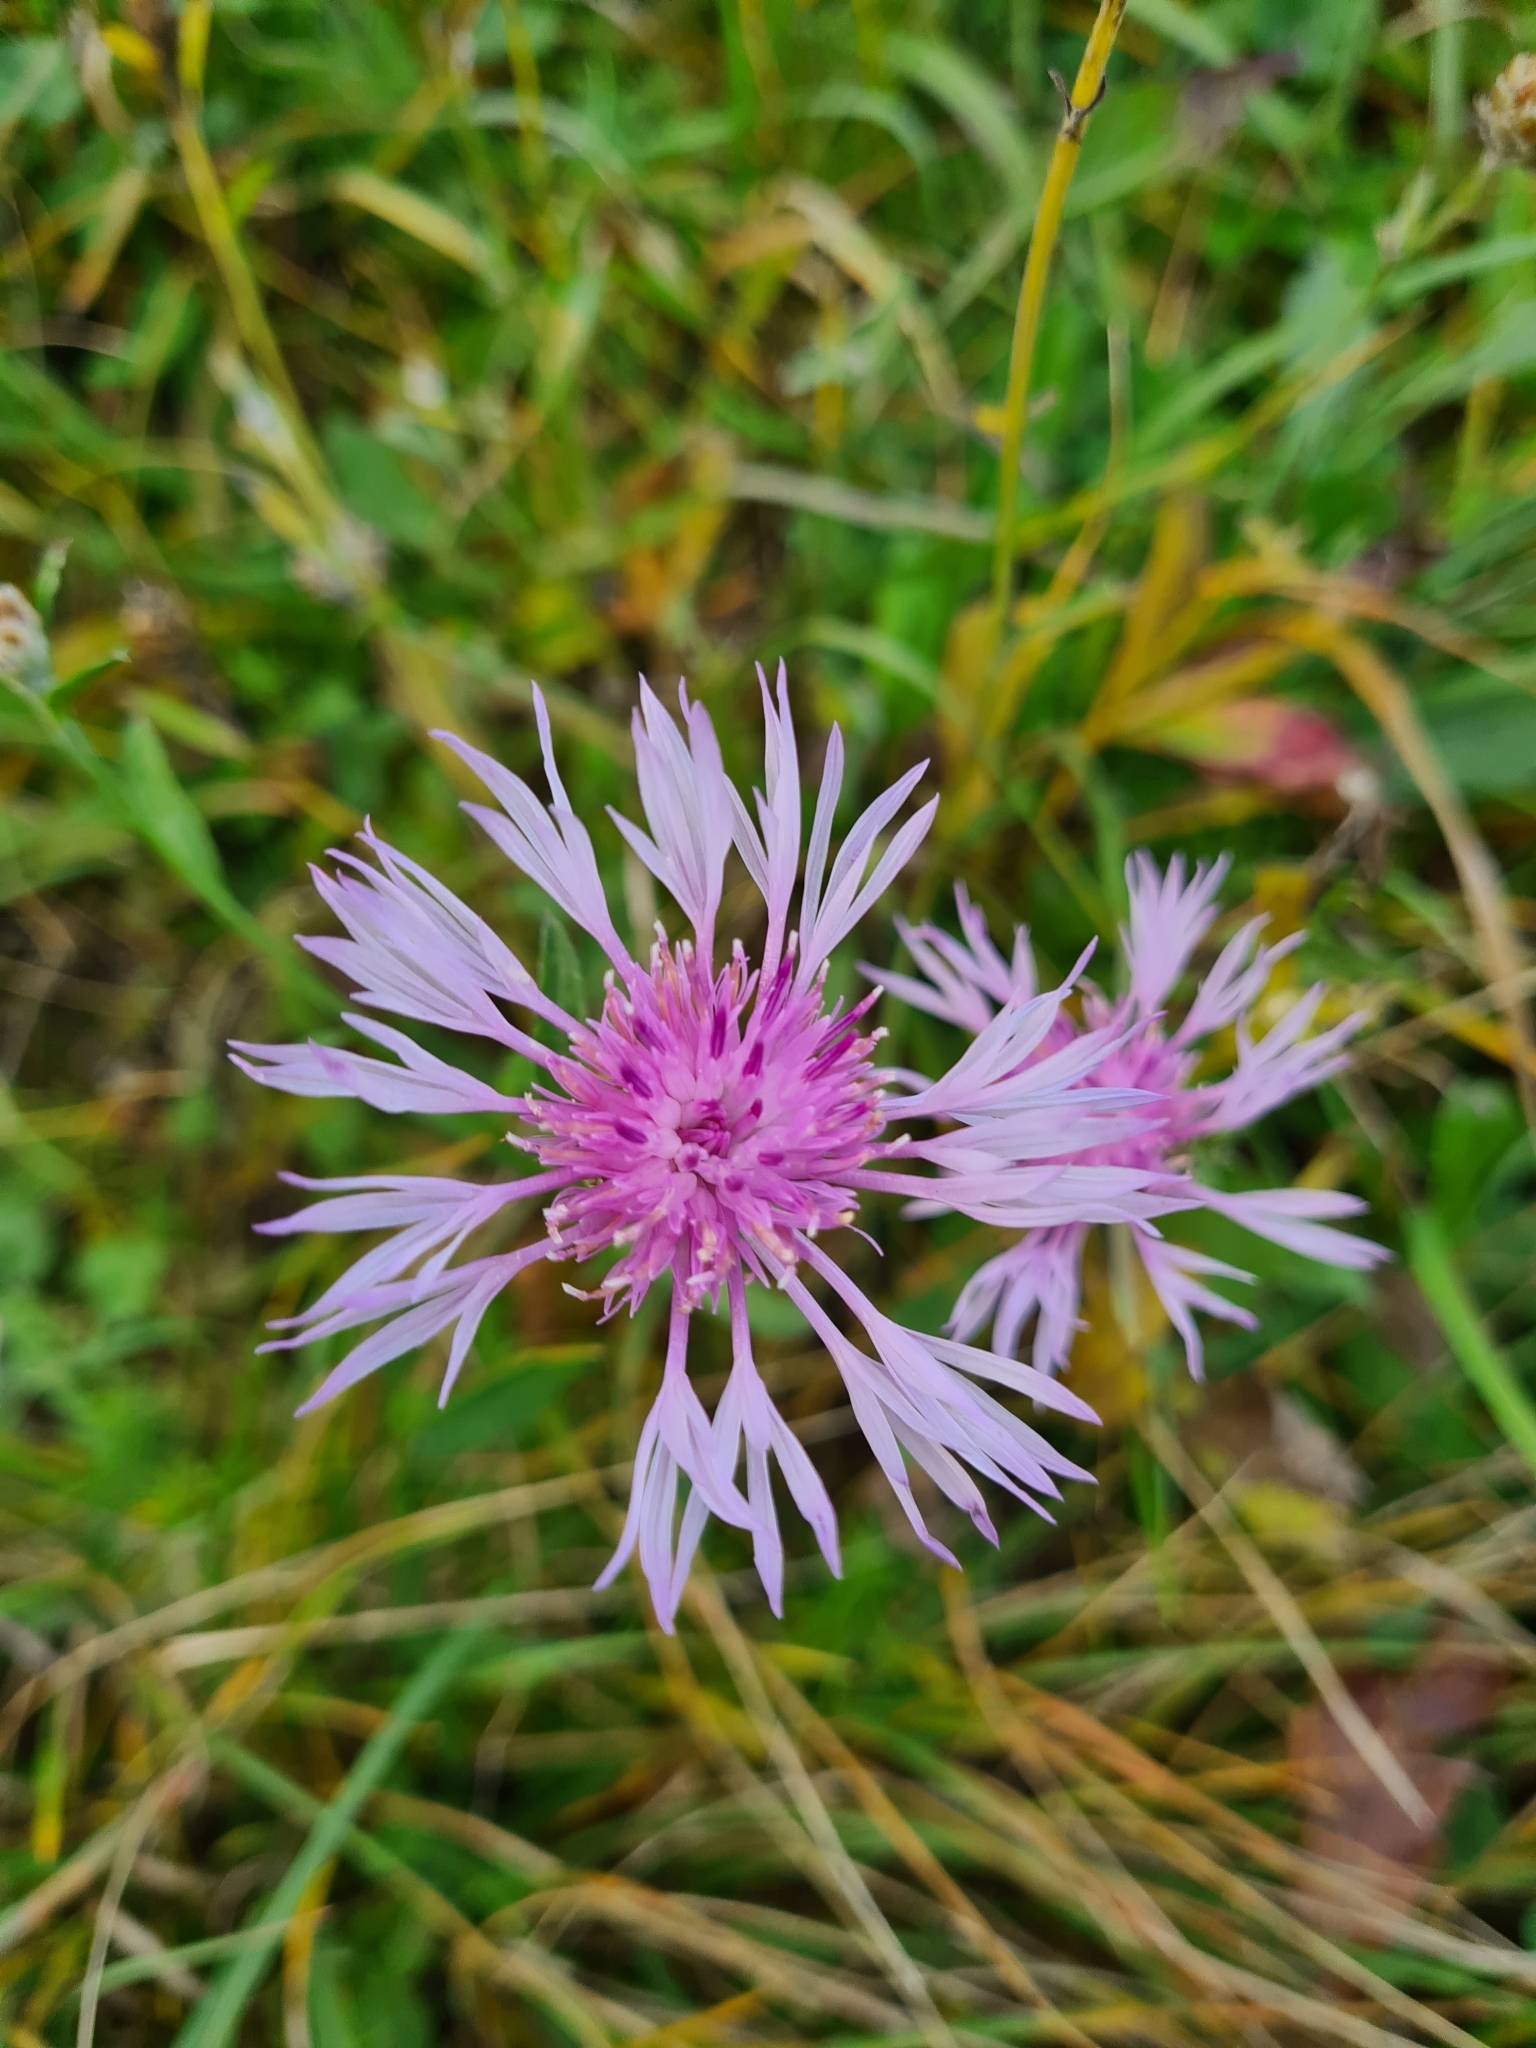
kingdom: Plantae
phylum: Tracheophyta
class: Magnoliopsida
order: Asterales
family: Asteraceae
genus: Centaurea
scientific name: Centaurea jacea
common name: Brown knapweed
